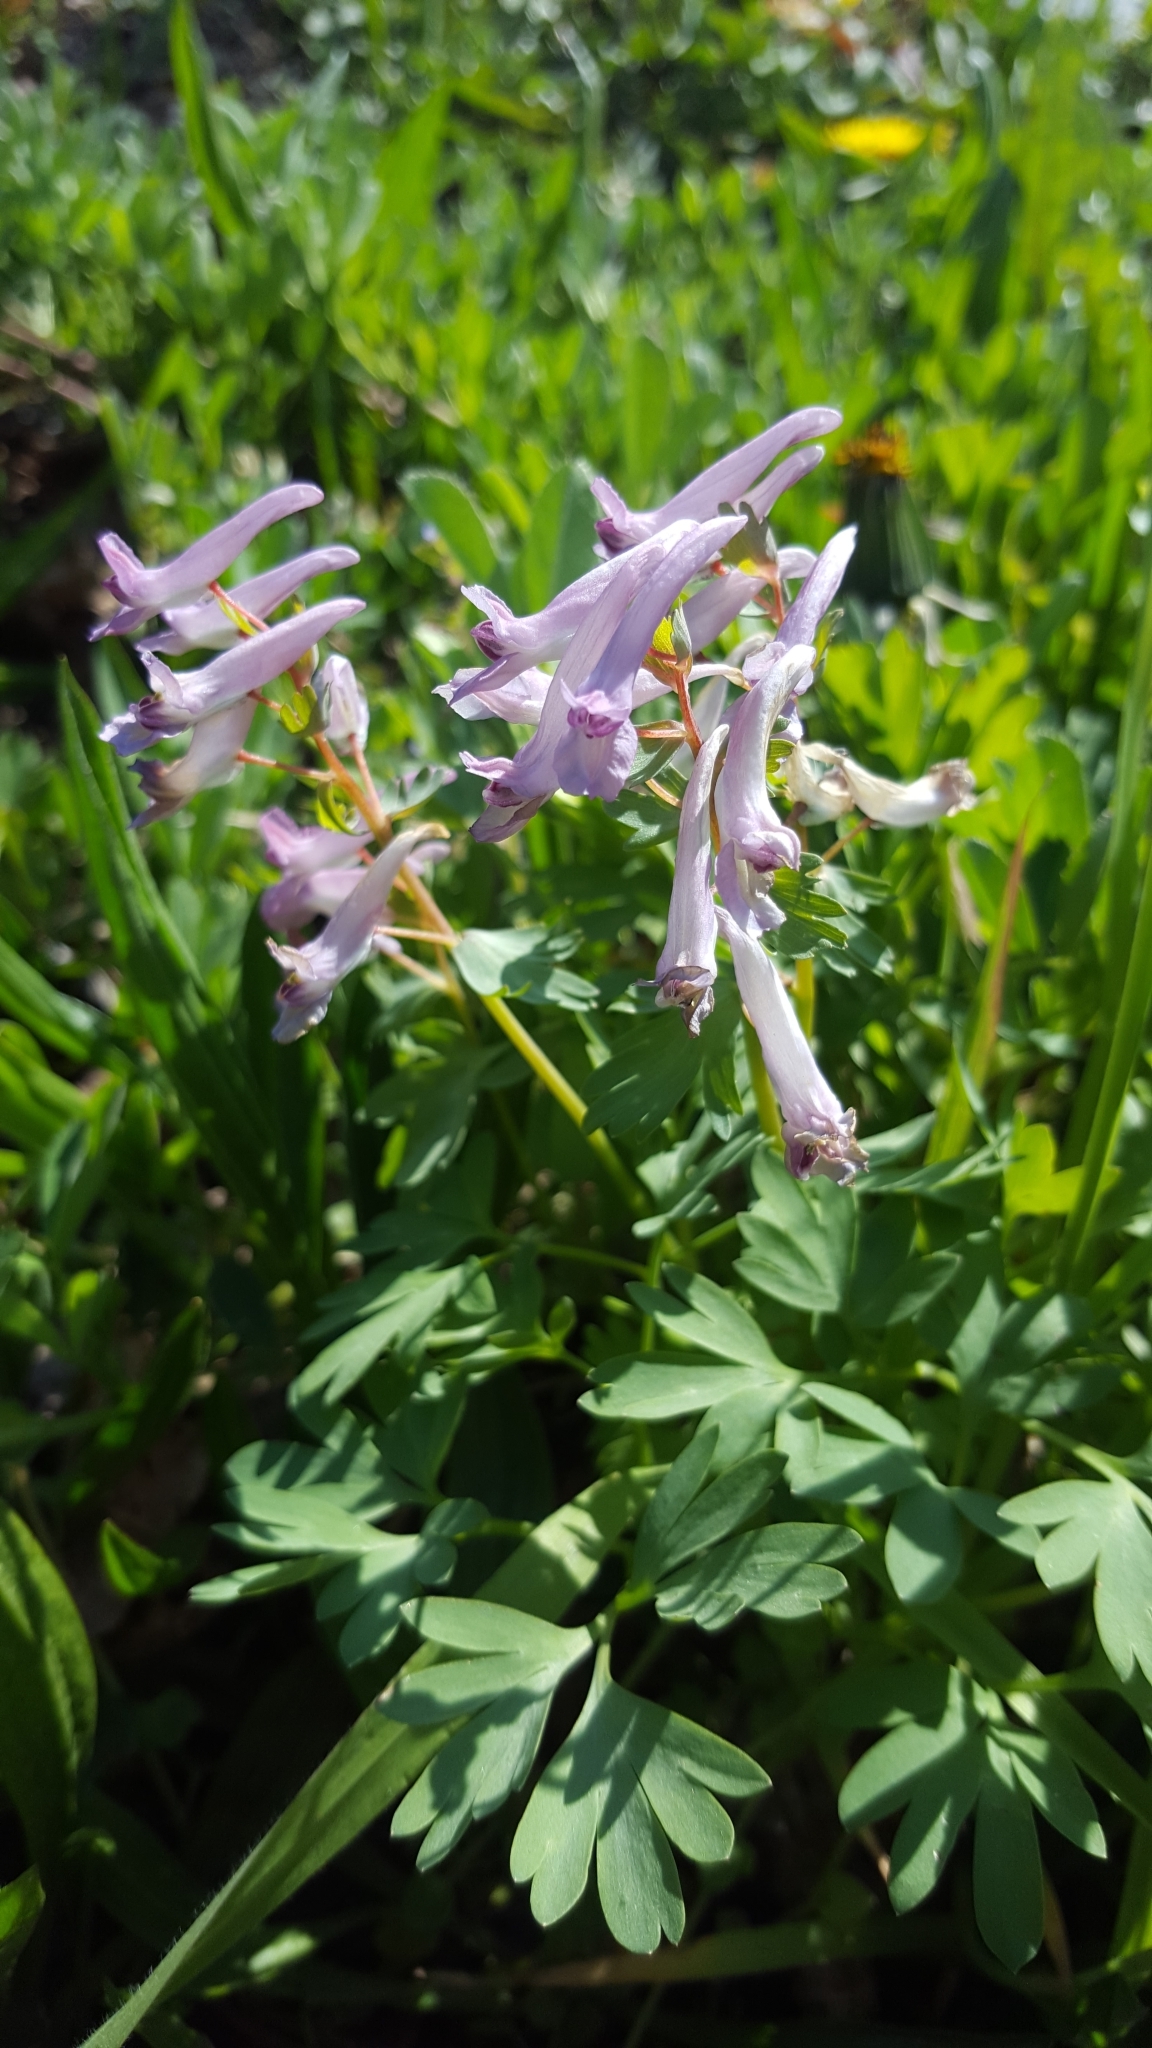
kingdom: Plantae
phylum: Tracheophyta
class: Magnoliopsida
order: Ranunculales
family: Papaveraceae
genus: Corydalis
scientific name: Corydalis solida
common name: Bird-in-a-bush
